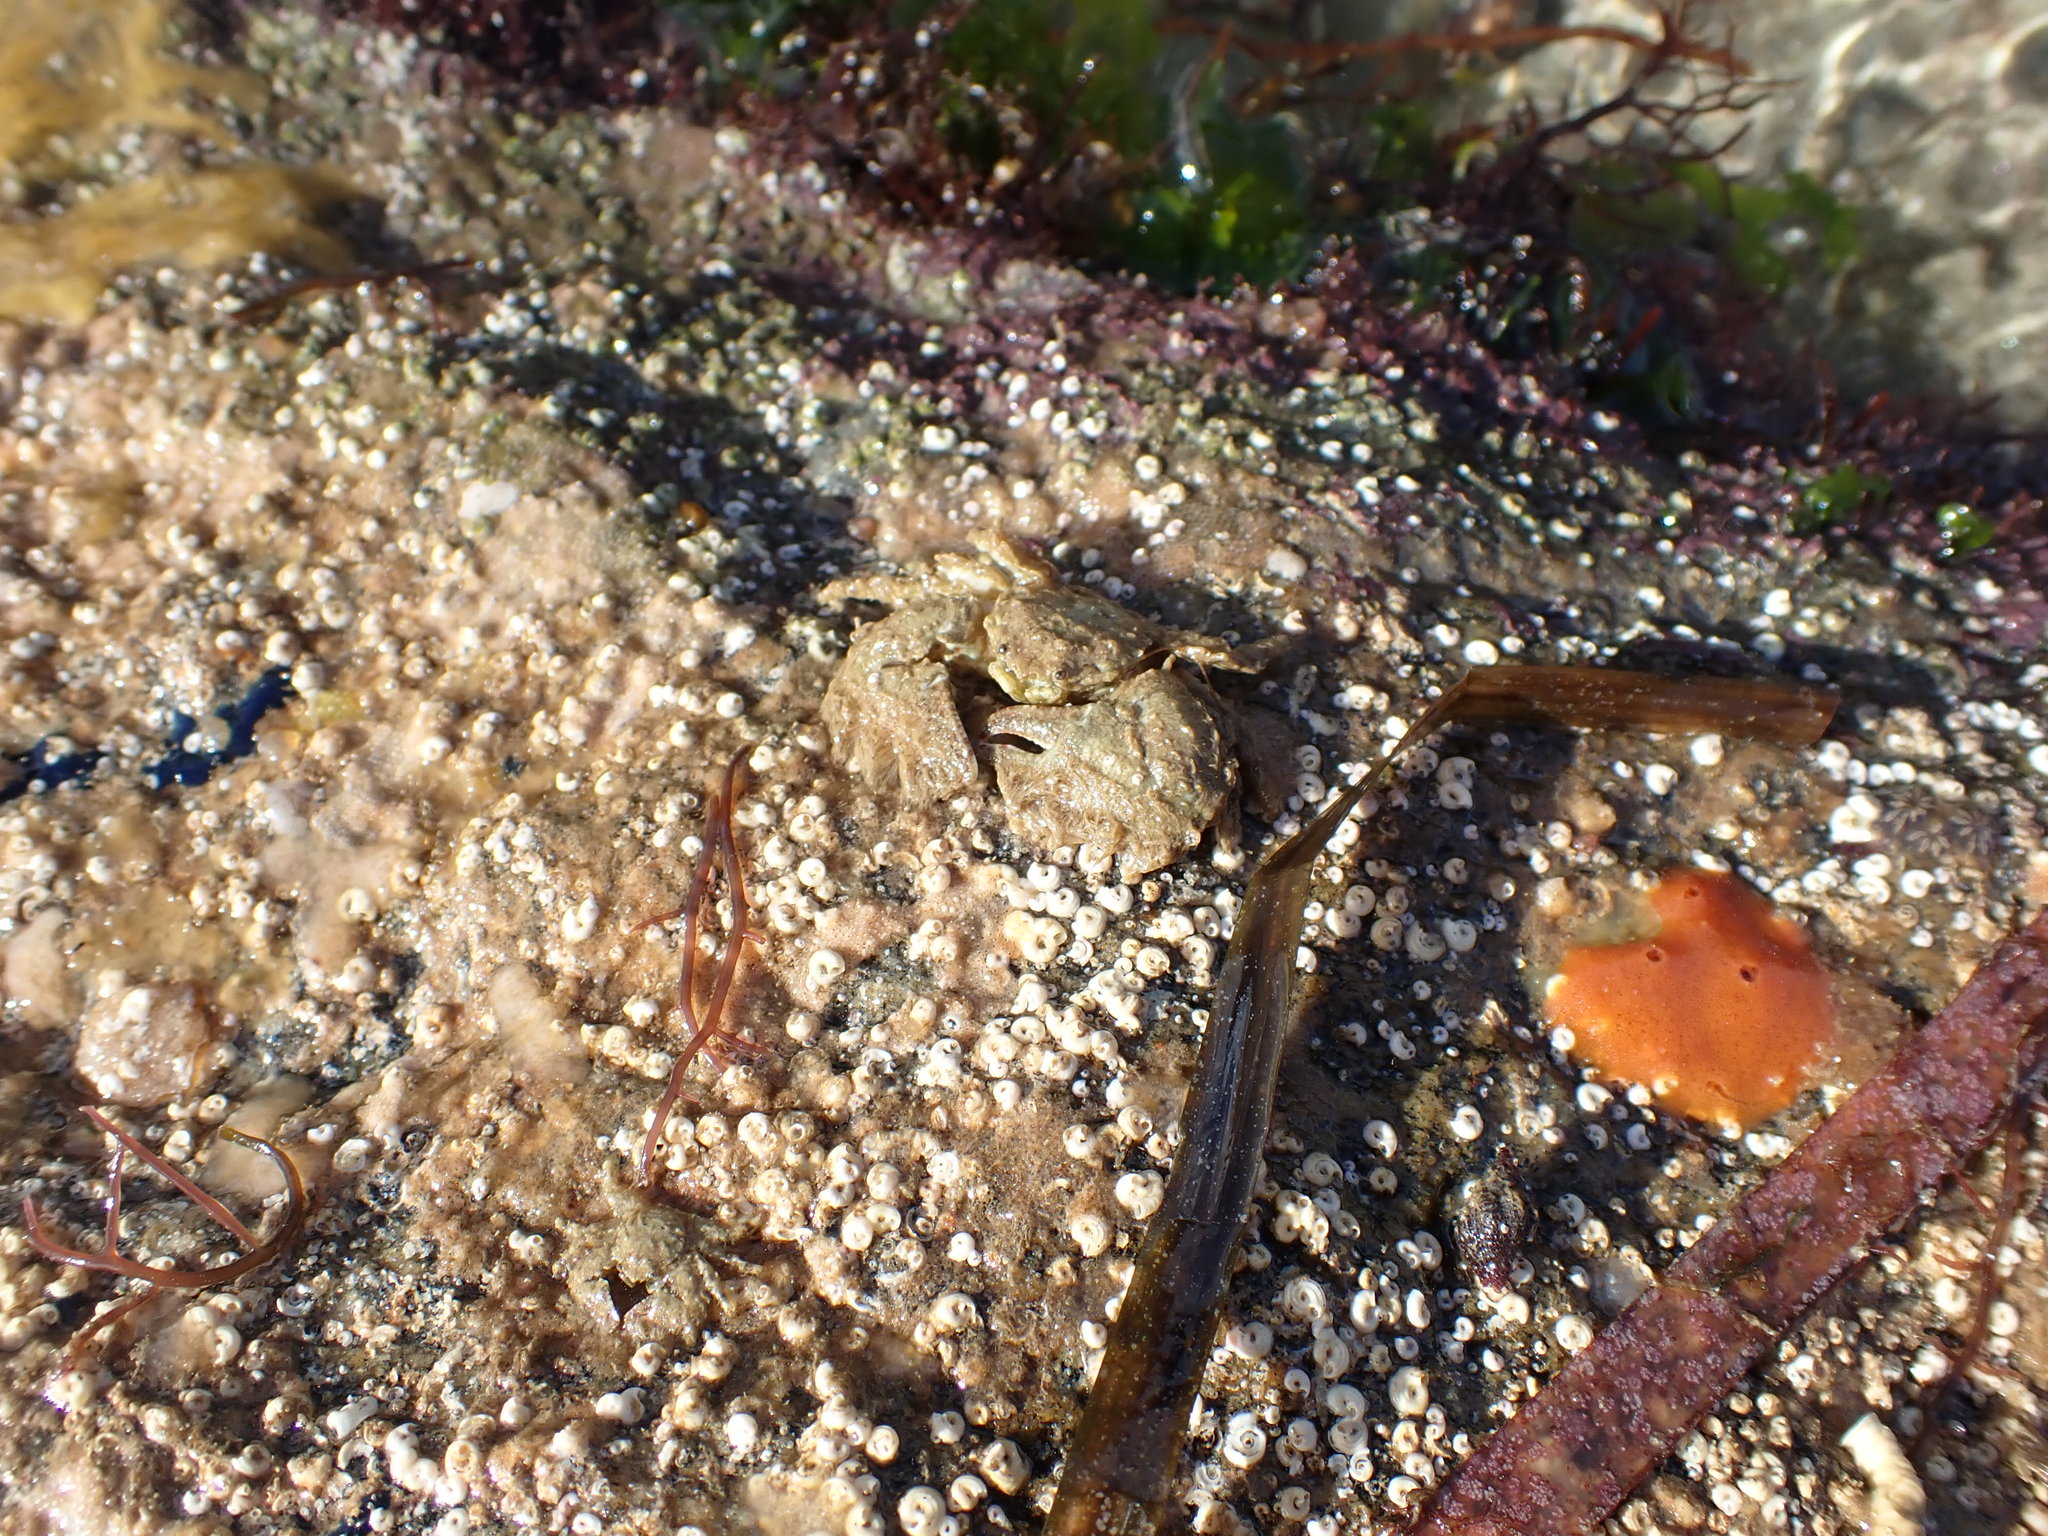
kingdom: Animalia
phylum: Arthropoda
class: Malacostraca
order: Decapoda
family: Porcellanidae
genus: Porcellana
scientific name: Porcellana platycheles
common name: Porcelain crab
